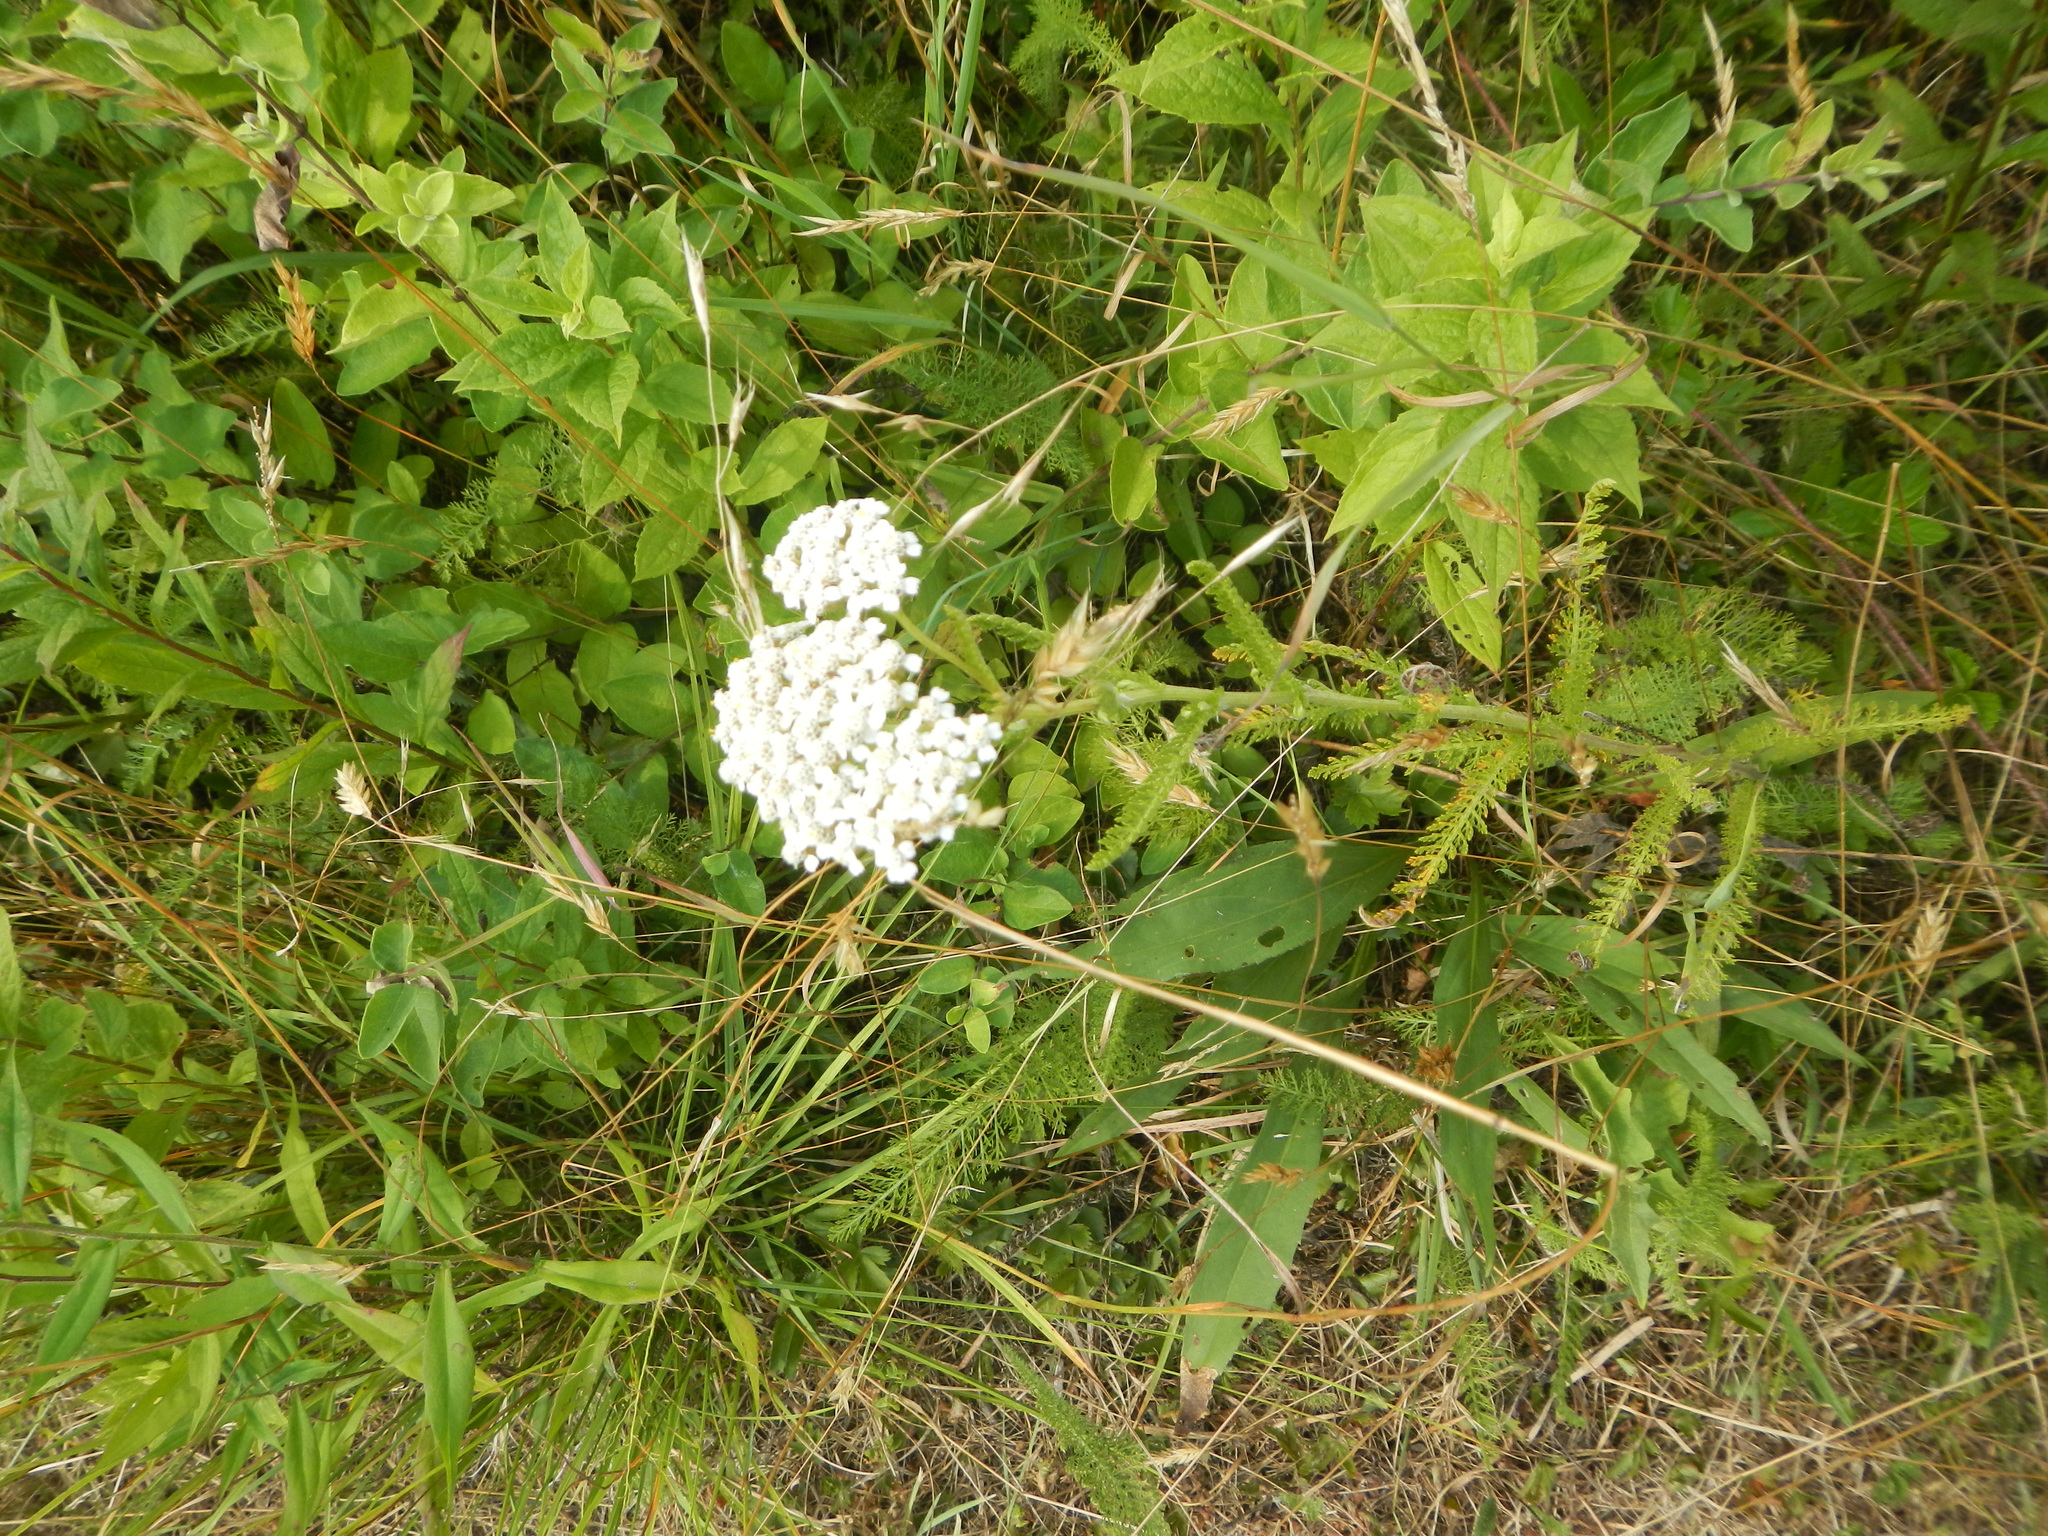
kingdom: Plantae
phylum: Tracheophyta
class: Magnoliopsida
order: Asterales
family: Asteraceae
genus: Achillea
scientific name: Achillea millefolium
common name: Yarrow
